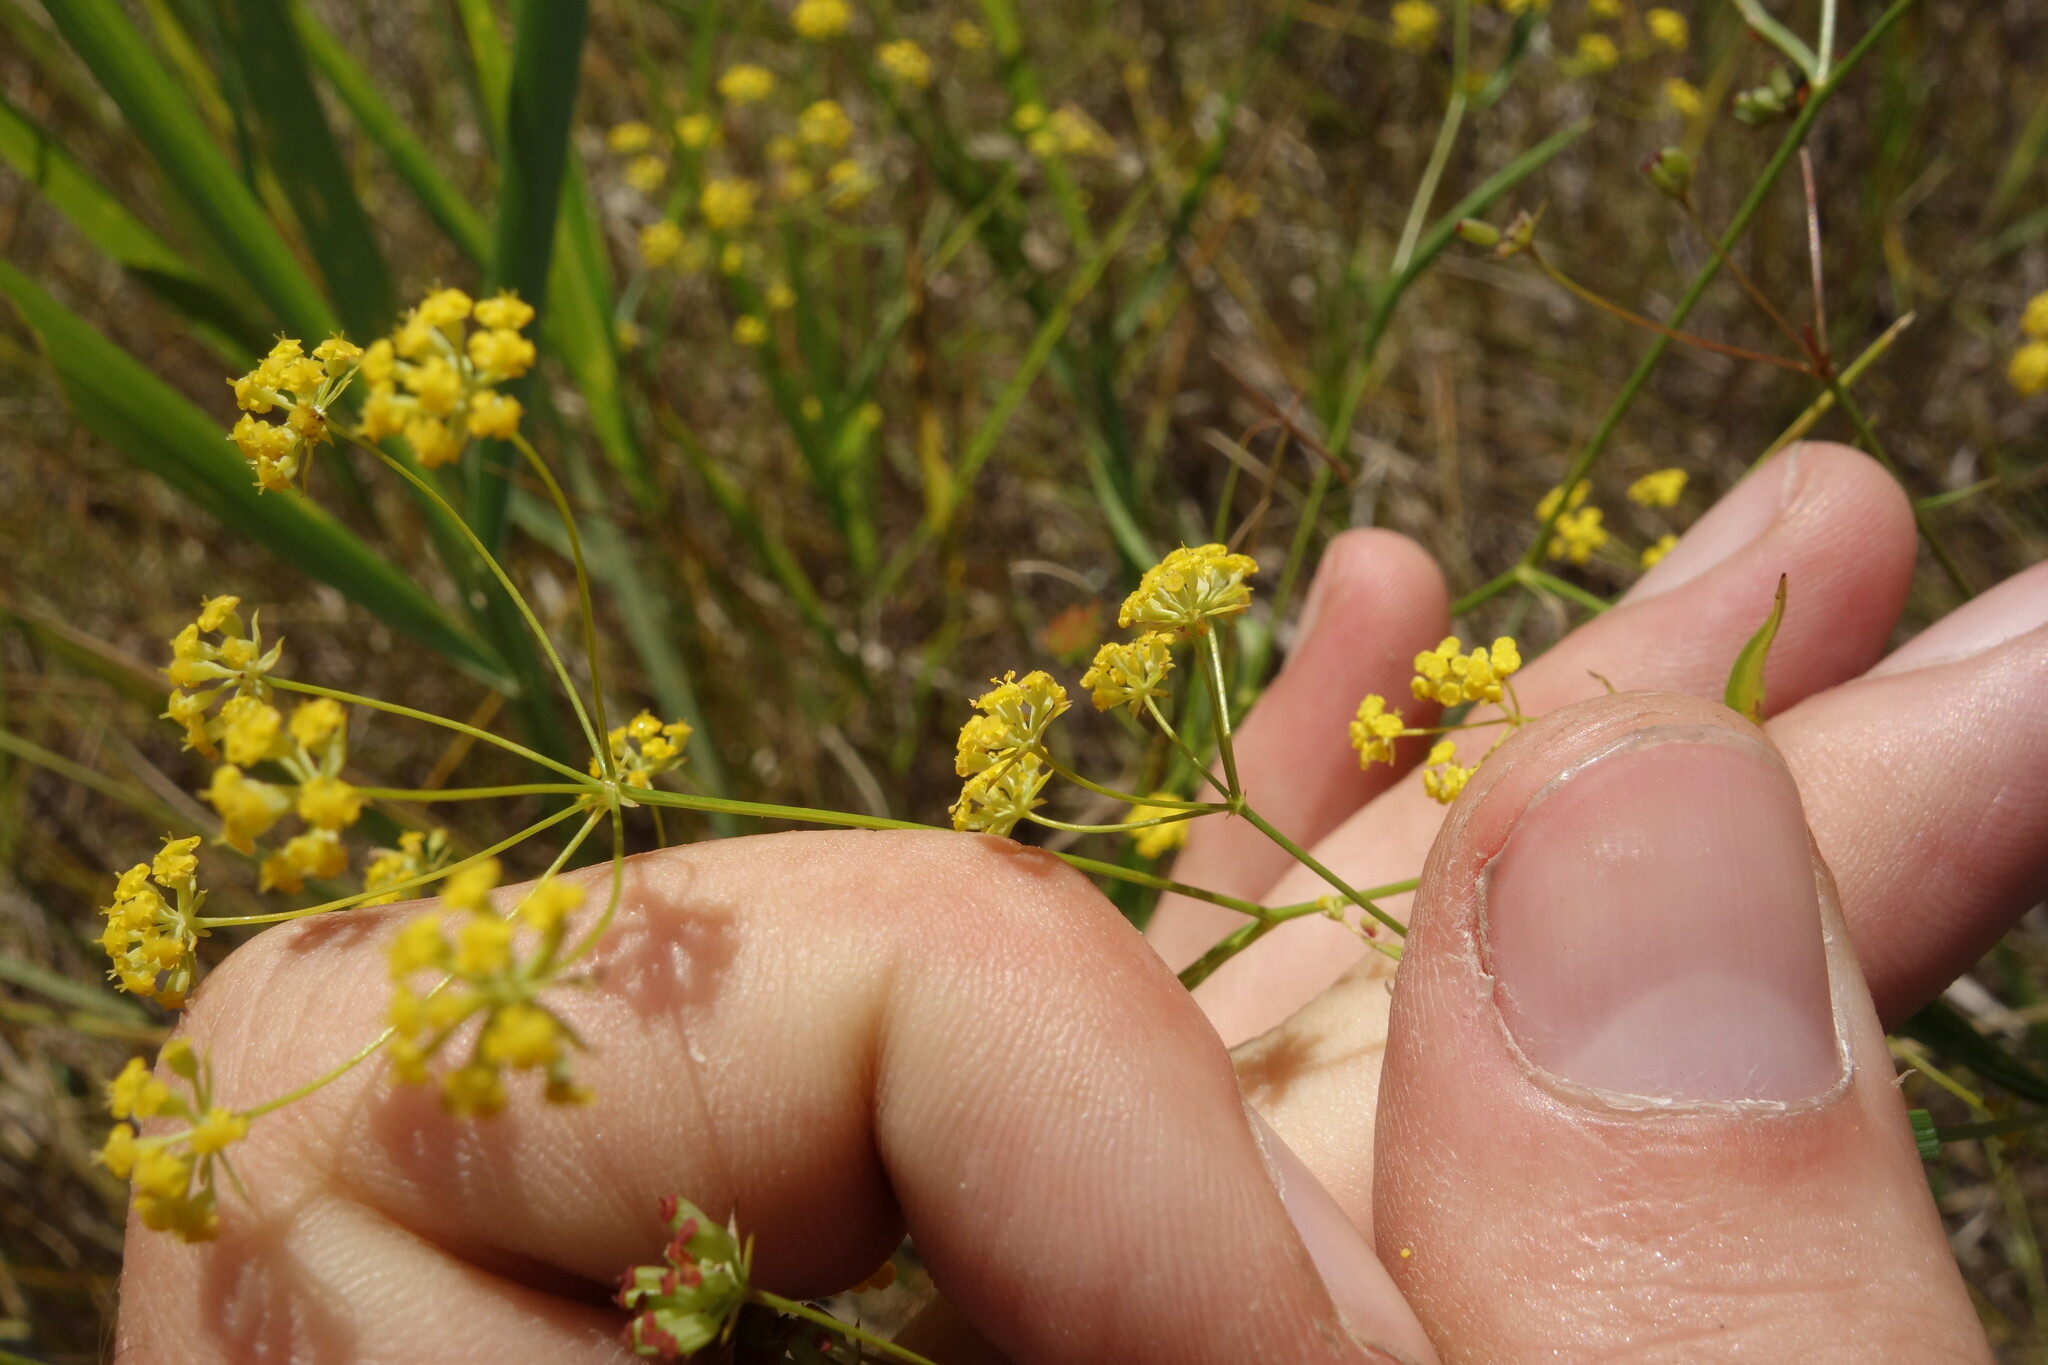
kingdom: Plantae
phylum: Tracheophyta
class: Magnoliopsida
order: Apiales
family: Apiaceae
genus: Bupleurum
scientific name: Bupleurum scorzonerifolium
